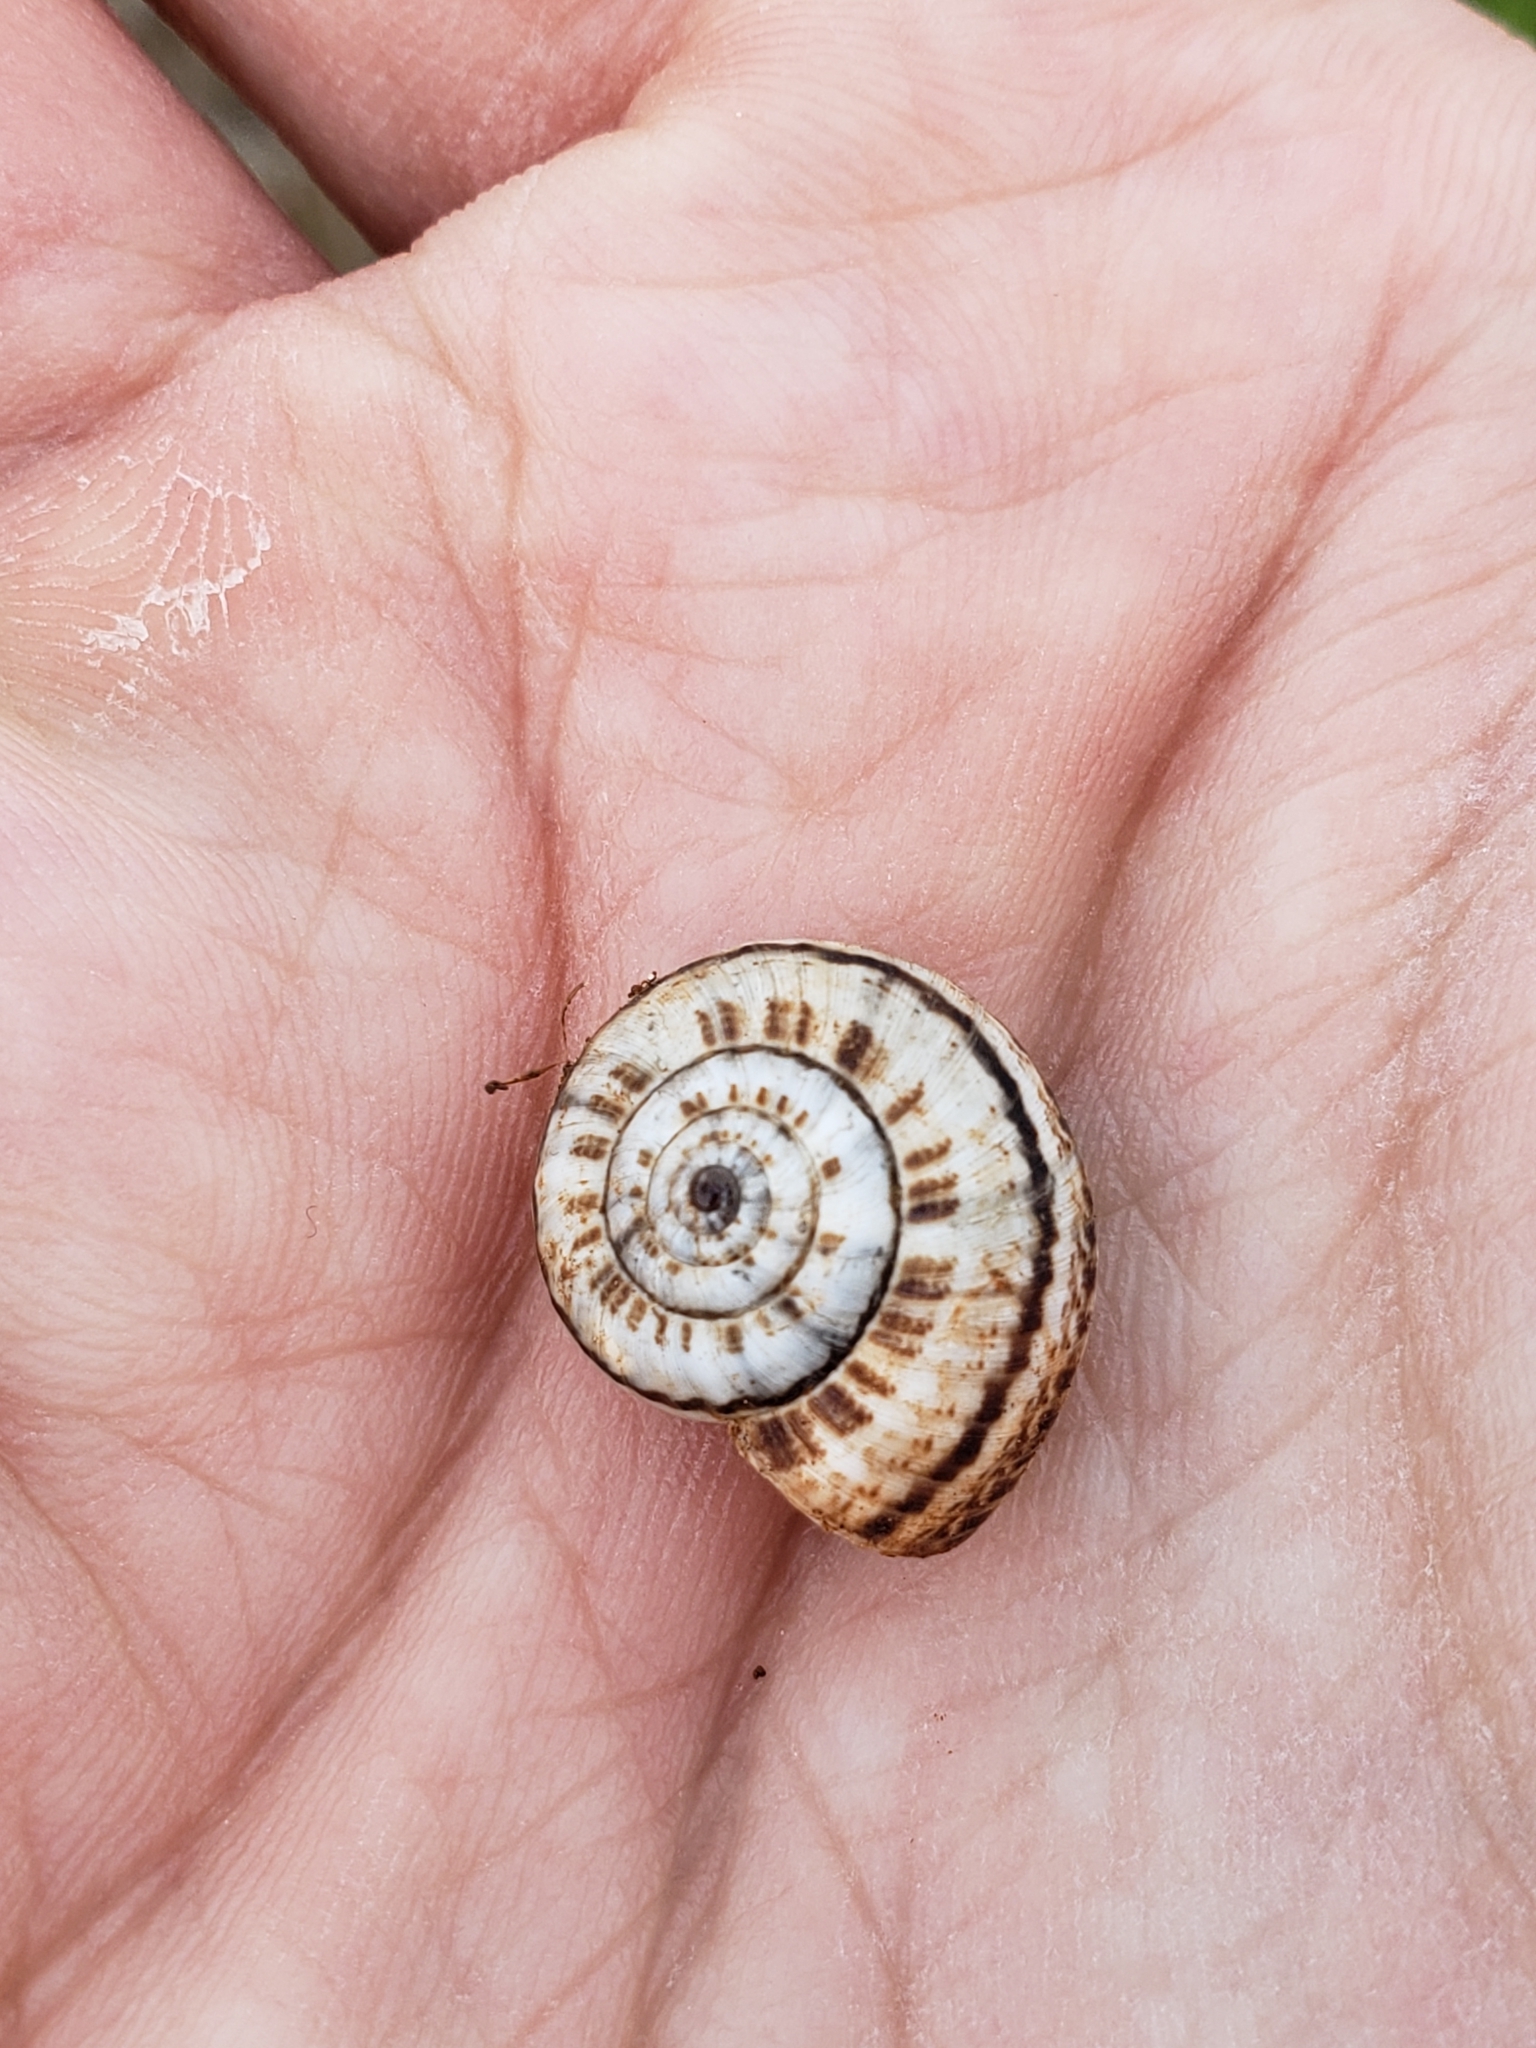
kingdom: Animalia
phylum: Mollusca
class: Gastropoda
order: Stylommatophora
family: Geomitridae
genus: Xeropicta
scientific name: Xeropicta krynickii
